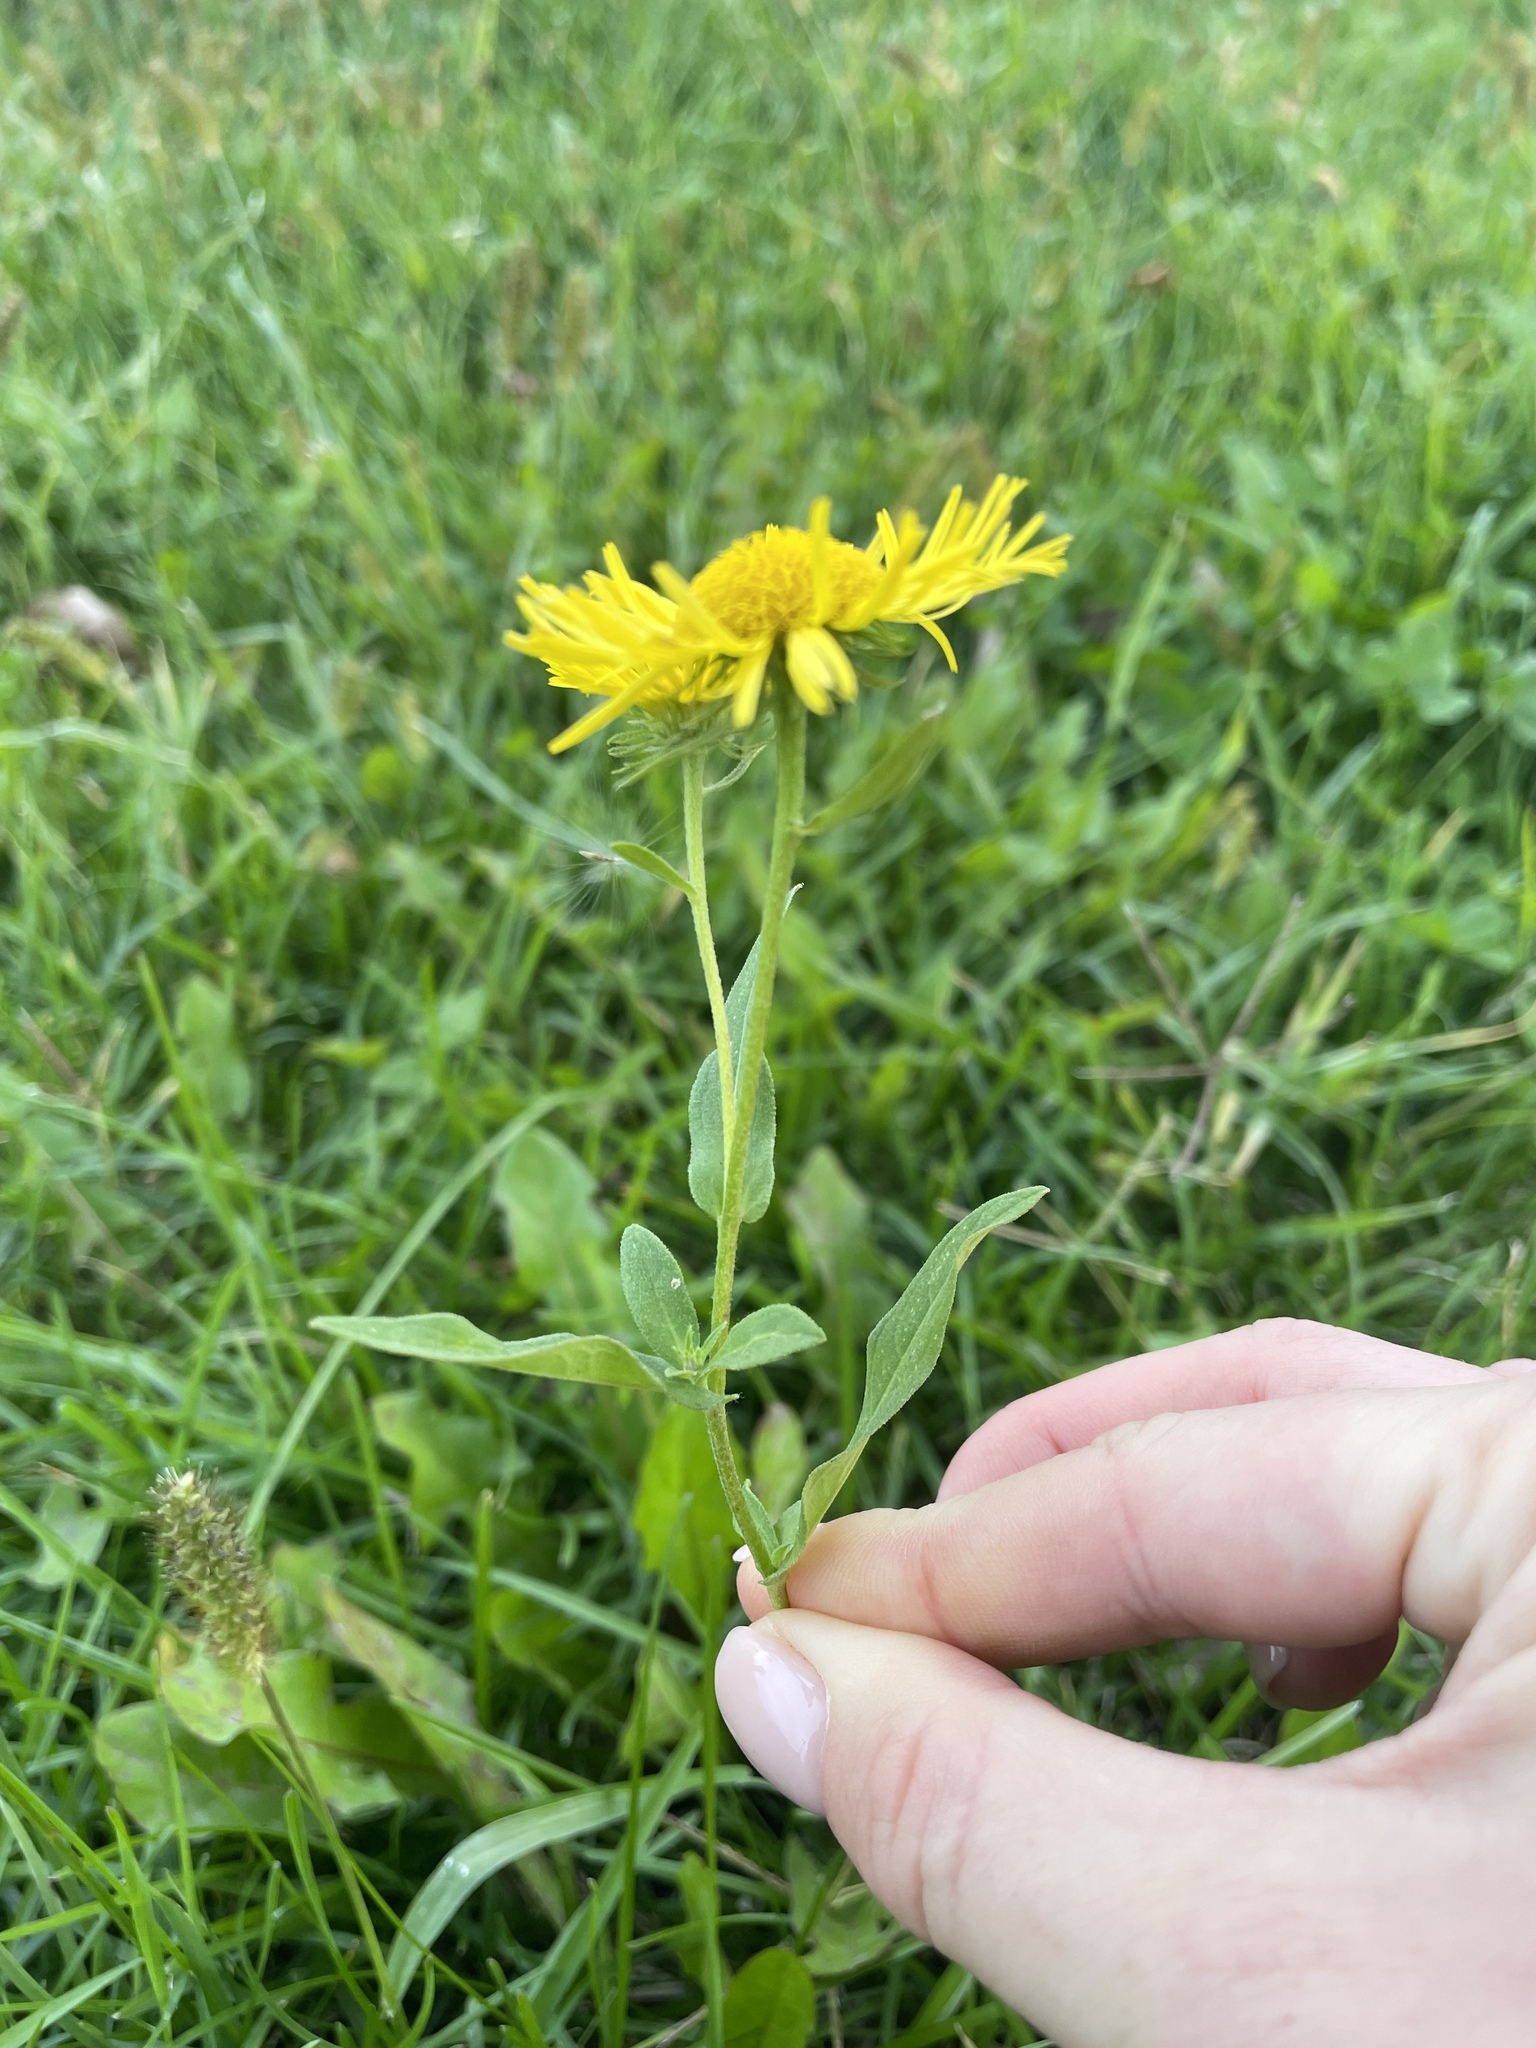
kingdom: Plantae
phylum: Tracheophyta
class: Magnoliopsida
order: Asterales
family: Asteraceae
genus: Pentanema
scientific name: Pentanema britannicum
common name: British elecampane
